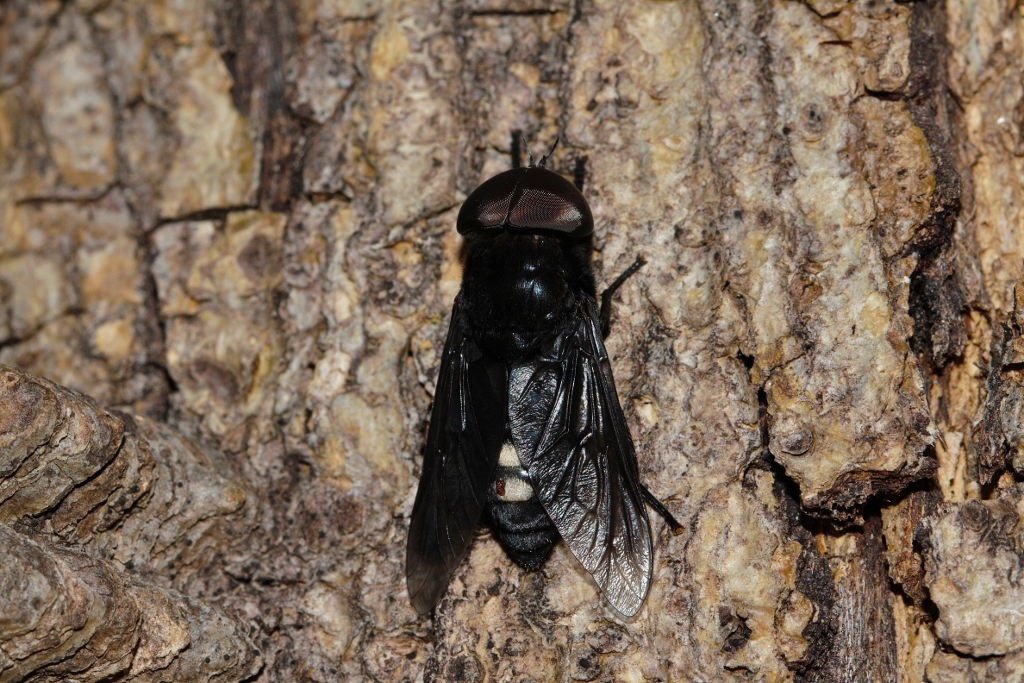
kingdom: Animalia
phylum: Arthropoda
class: Insecta
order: Diptera
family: Tabanidae
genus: Tabanus
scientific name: Tabanus biguttatus
